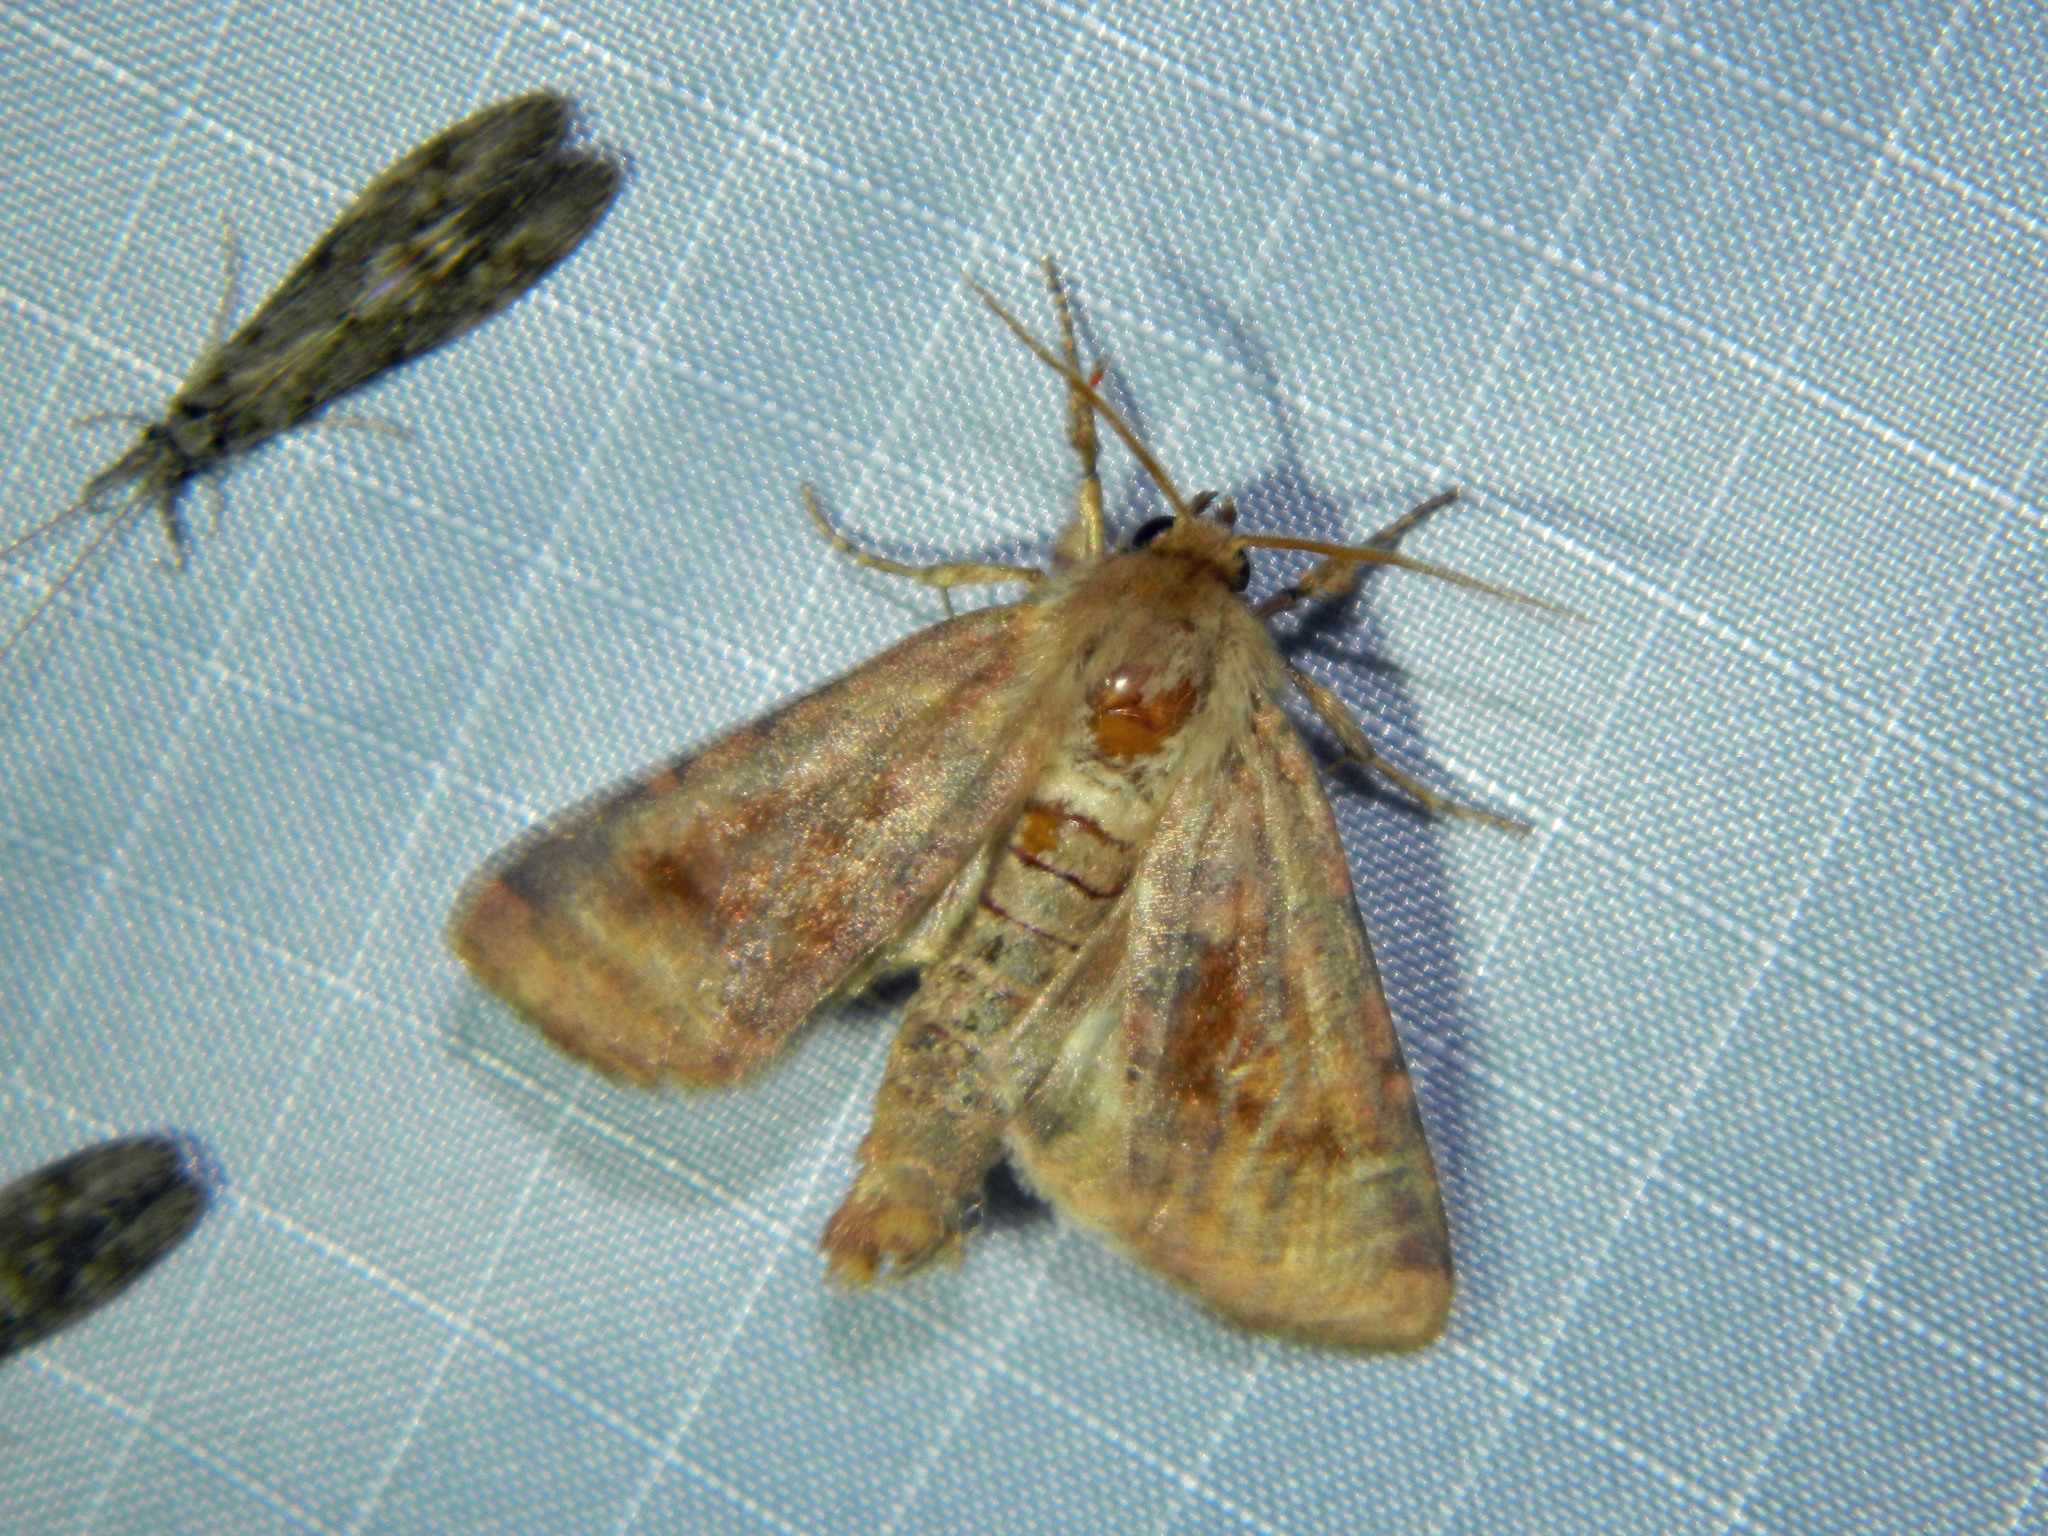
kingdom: Animalia
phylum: Arthropoda
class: Insecta
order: Lepidoptera
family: Noctuidae
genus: Nephelodes
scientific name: Nephelodes minians
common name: Bronzed cutworm
